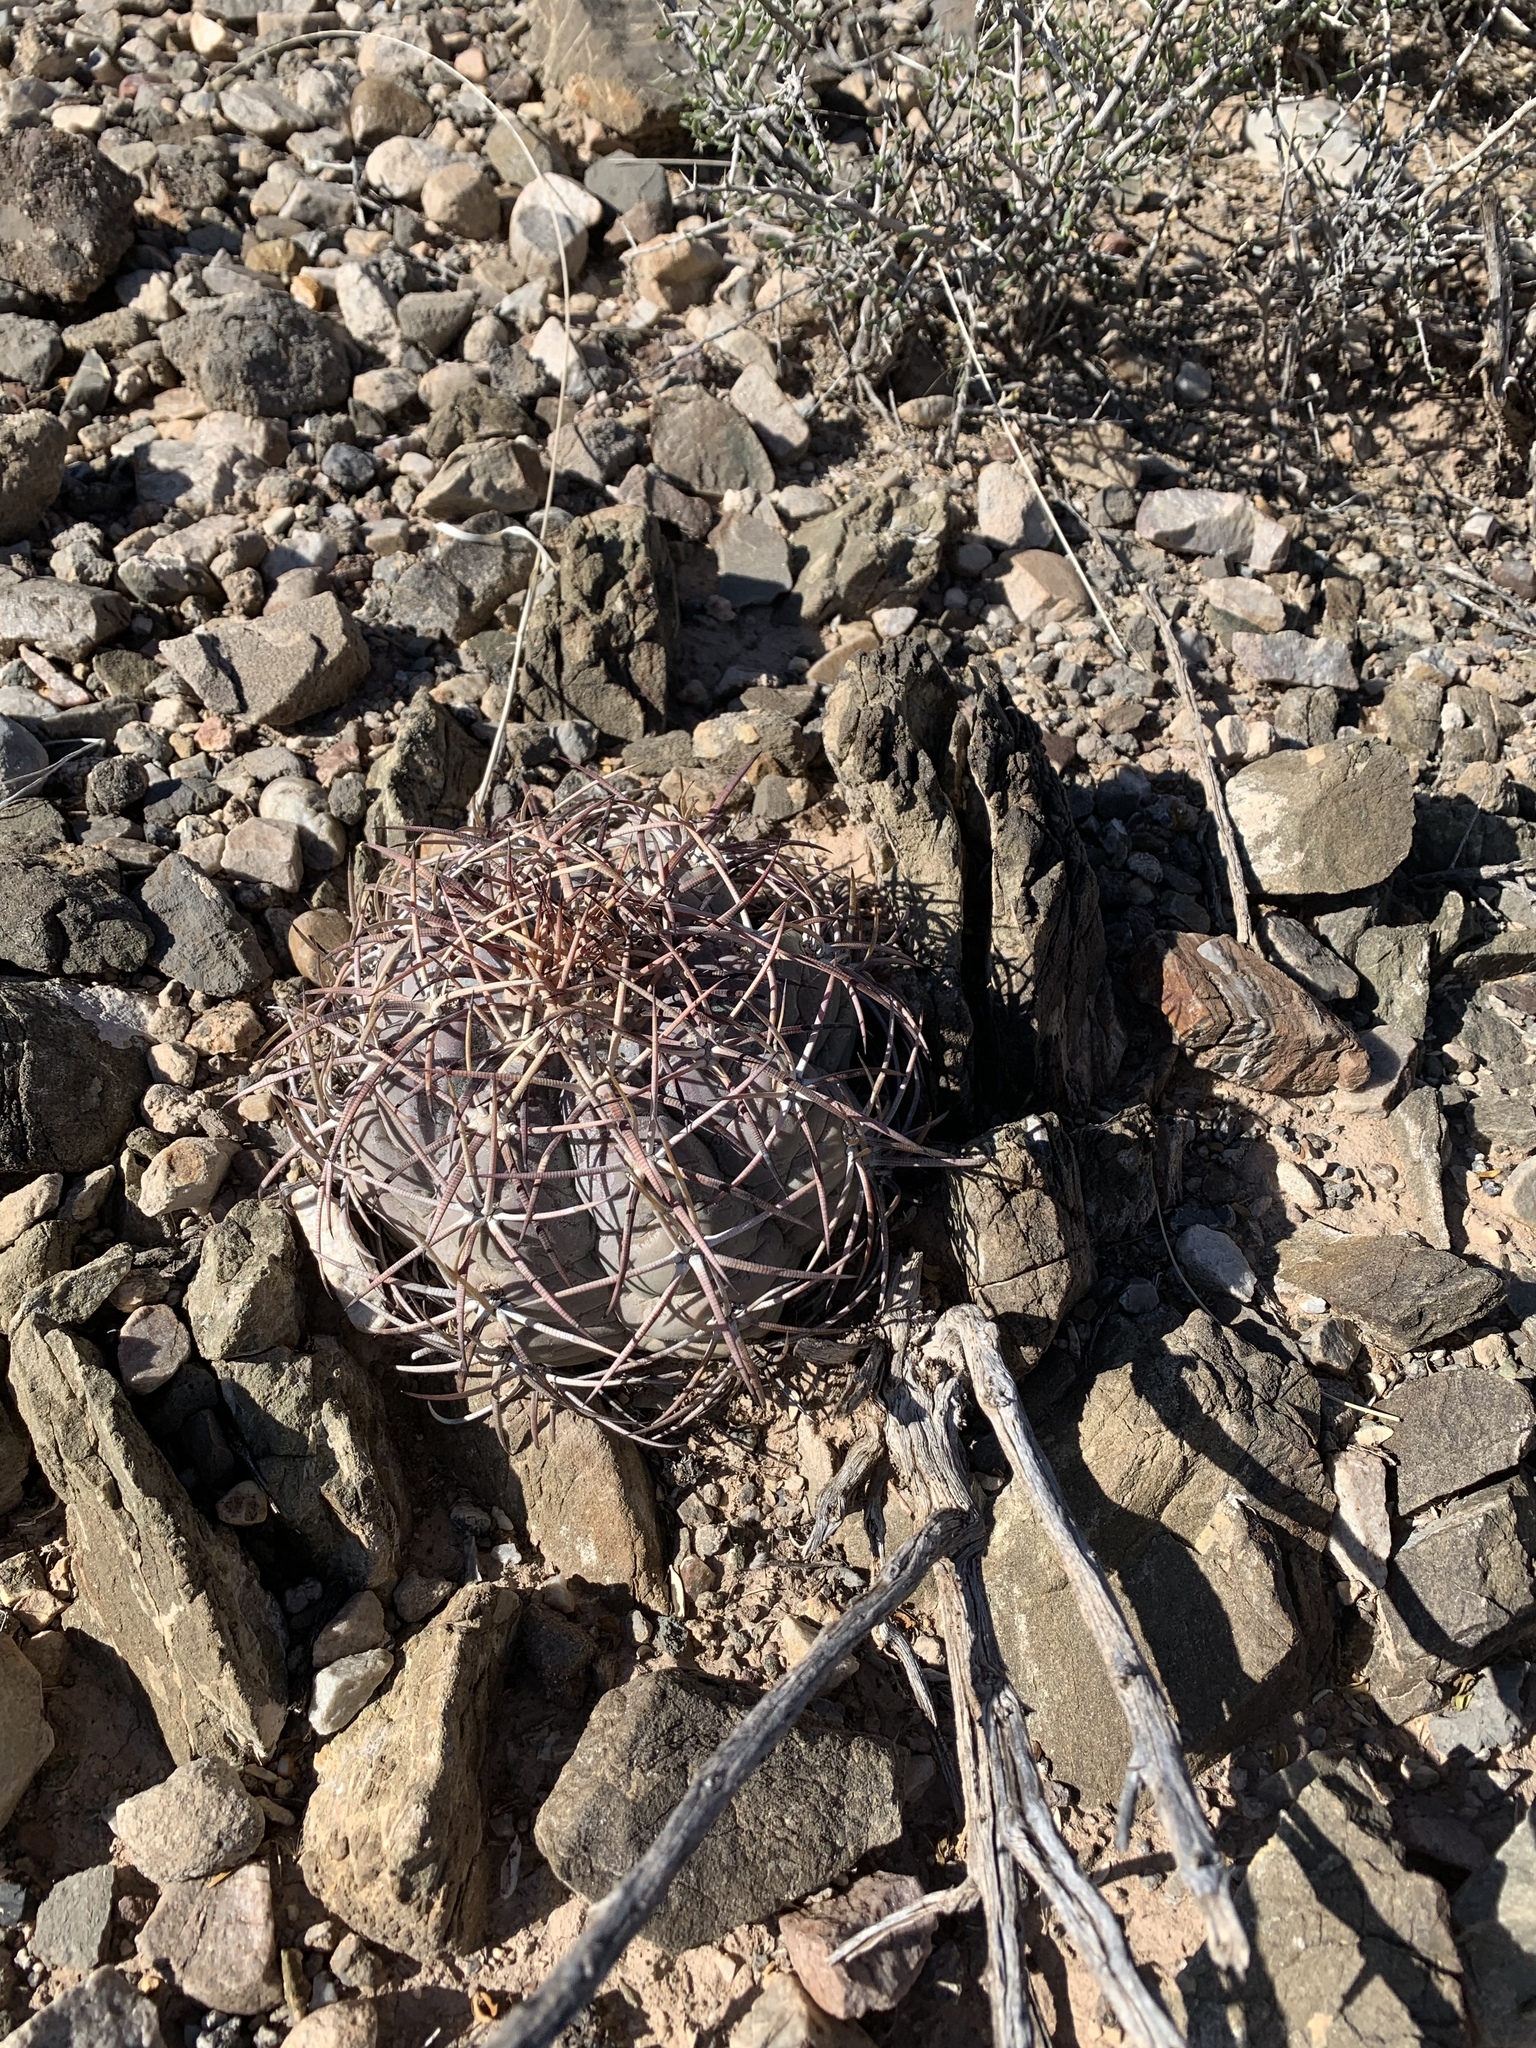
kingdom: Plantae
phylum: Tracheophyta
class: Magnoliopsida
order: Caryophyllales
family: Cactaceae
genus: Echinocactus
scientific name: Echinocactus horizonthalonius
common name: Devilshead
